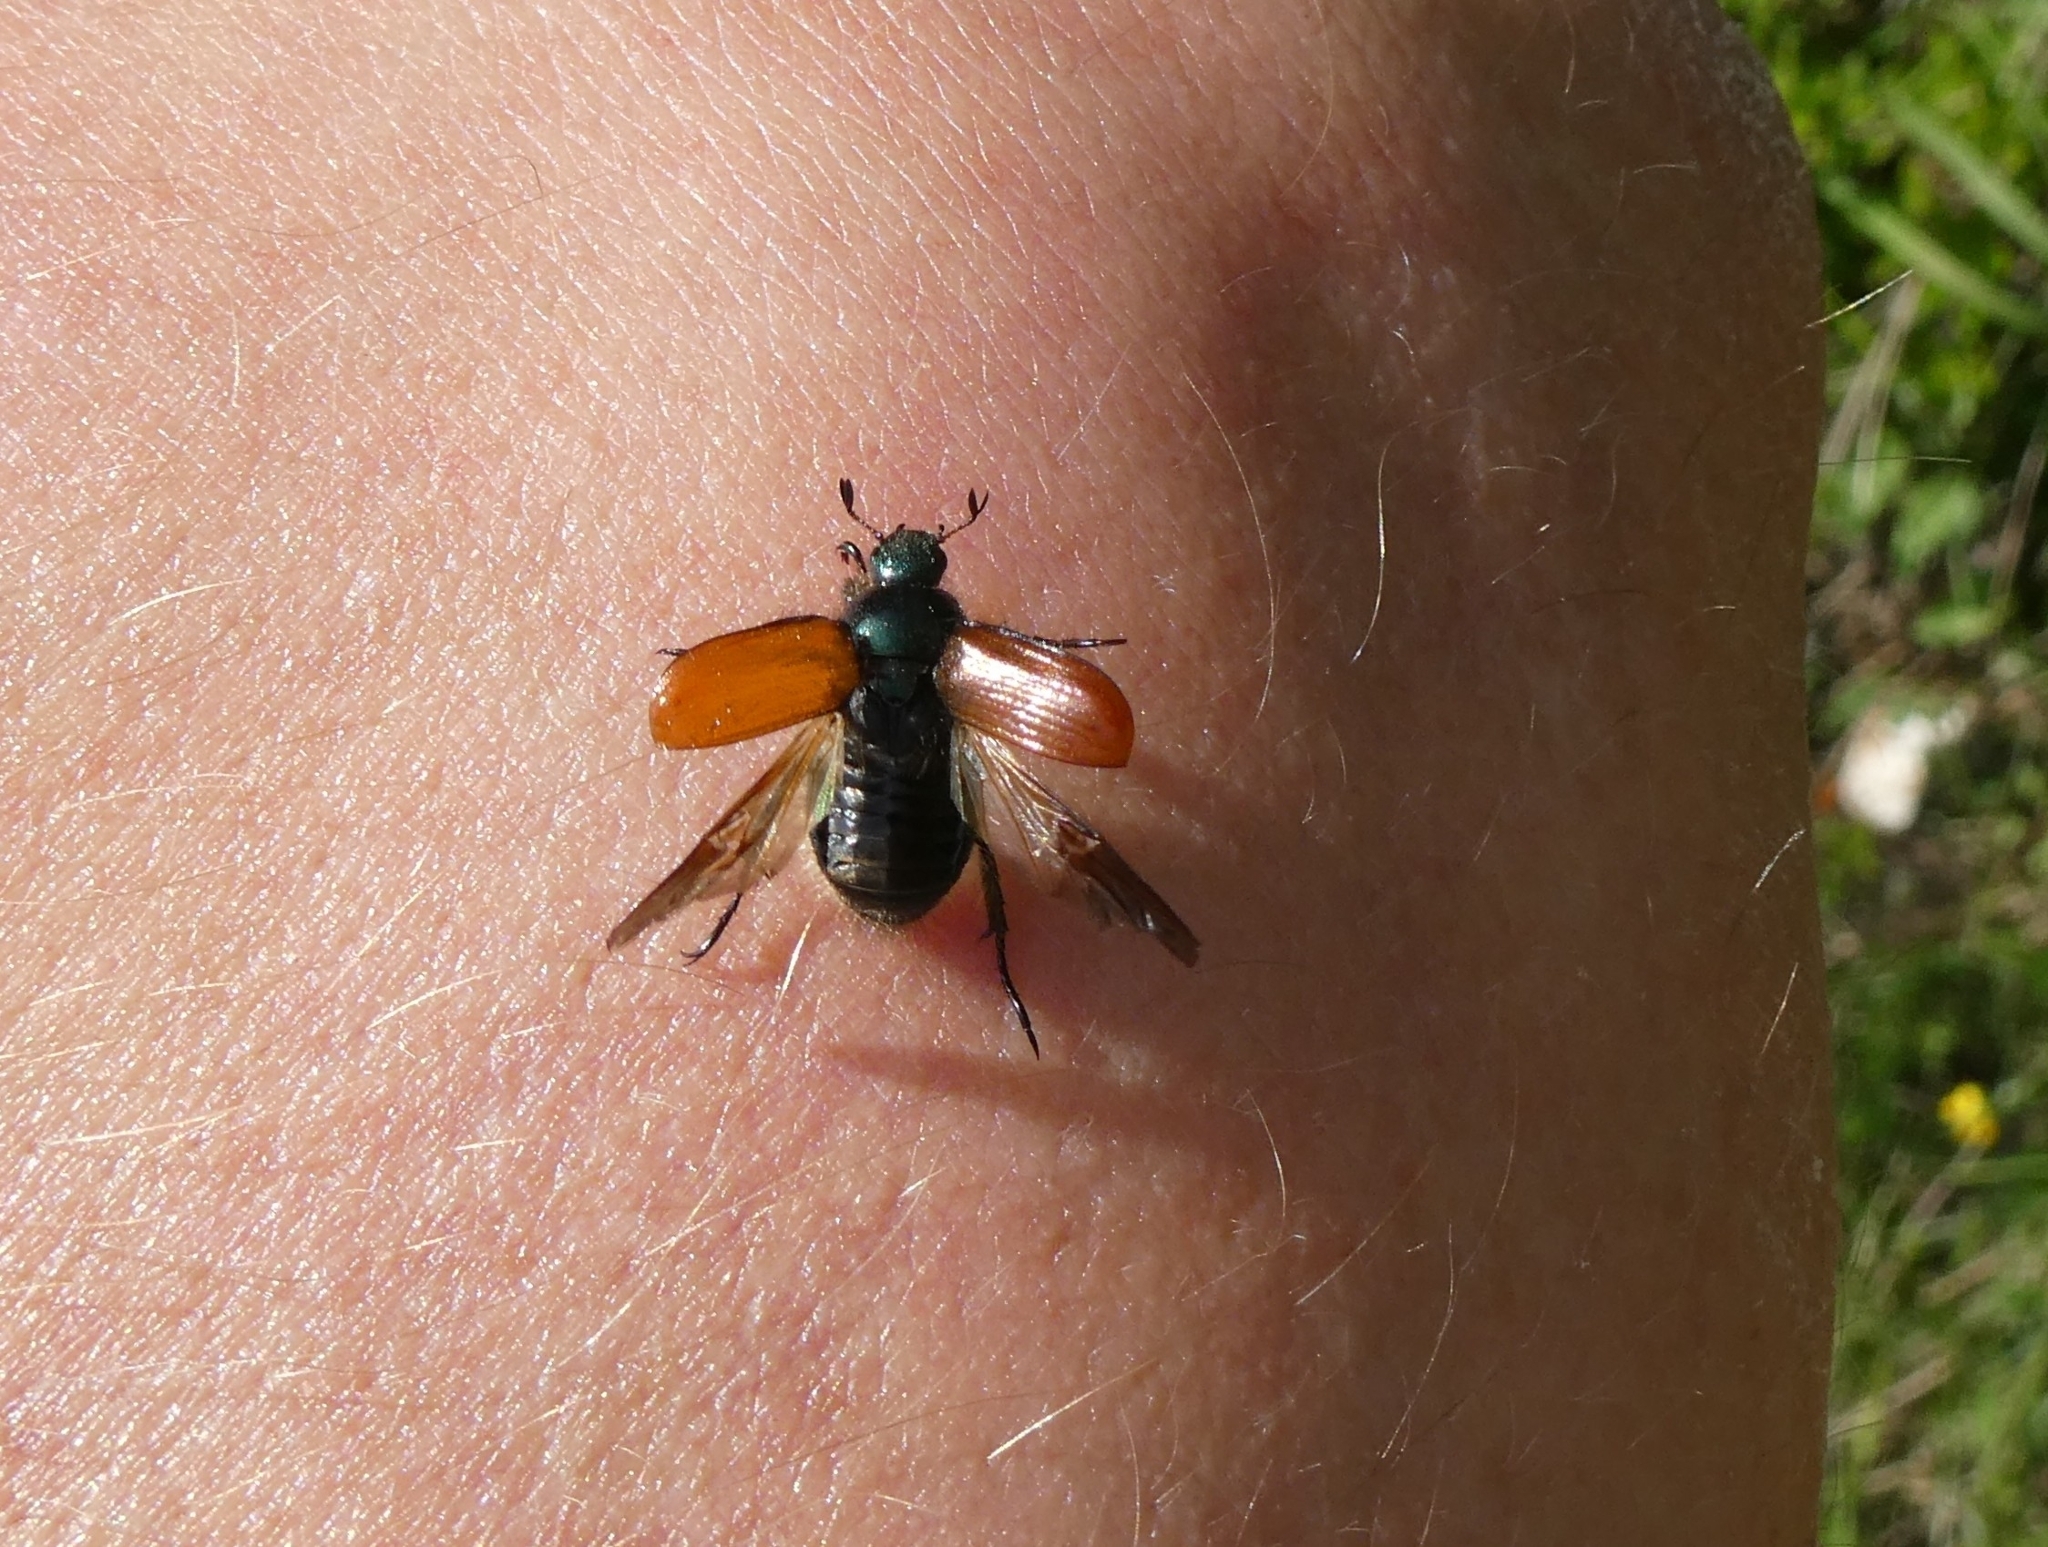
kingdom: Animalia
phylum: Arthropoda
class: Insecta
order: Coleoptera
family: Scarabaeidae
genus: Phyllopertha
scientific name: Phyllopertha horticola
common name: Garden chafer
